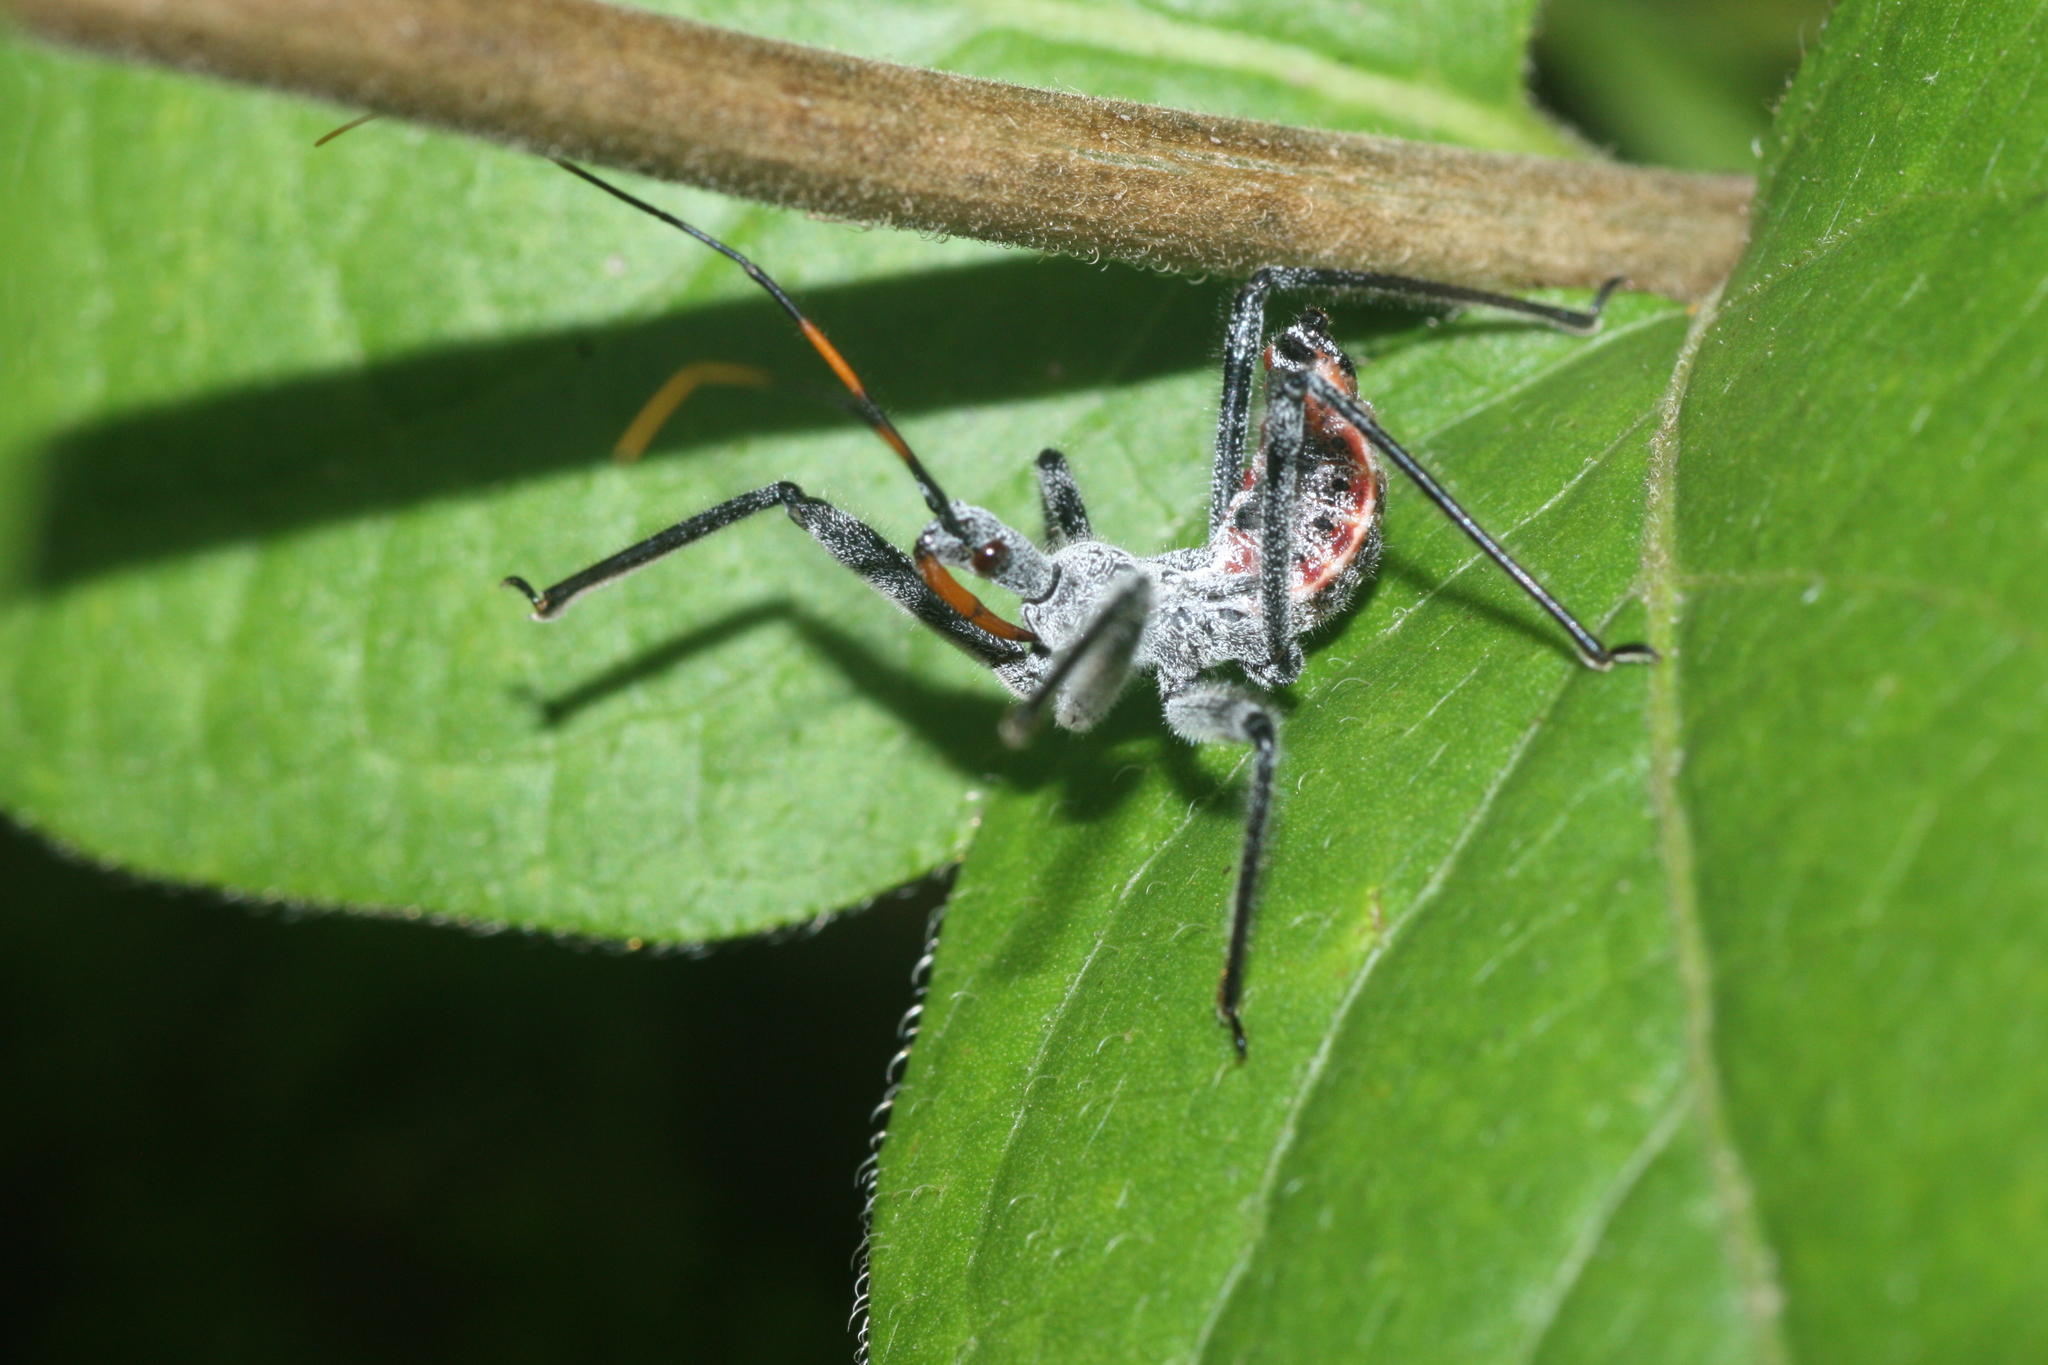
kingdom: Animalia
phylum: Arthropoda
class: Insecta
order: Hemiptera
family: Reduviidae
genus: Arilus
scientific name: Arilus cristatus
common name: North american wheel bug
